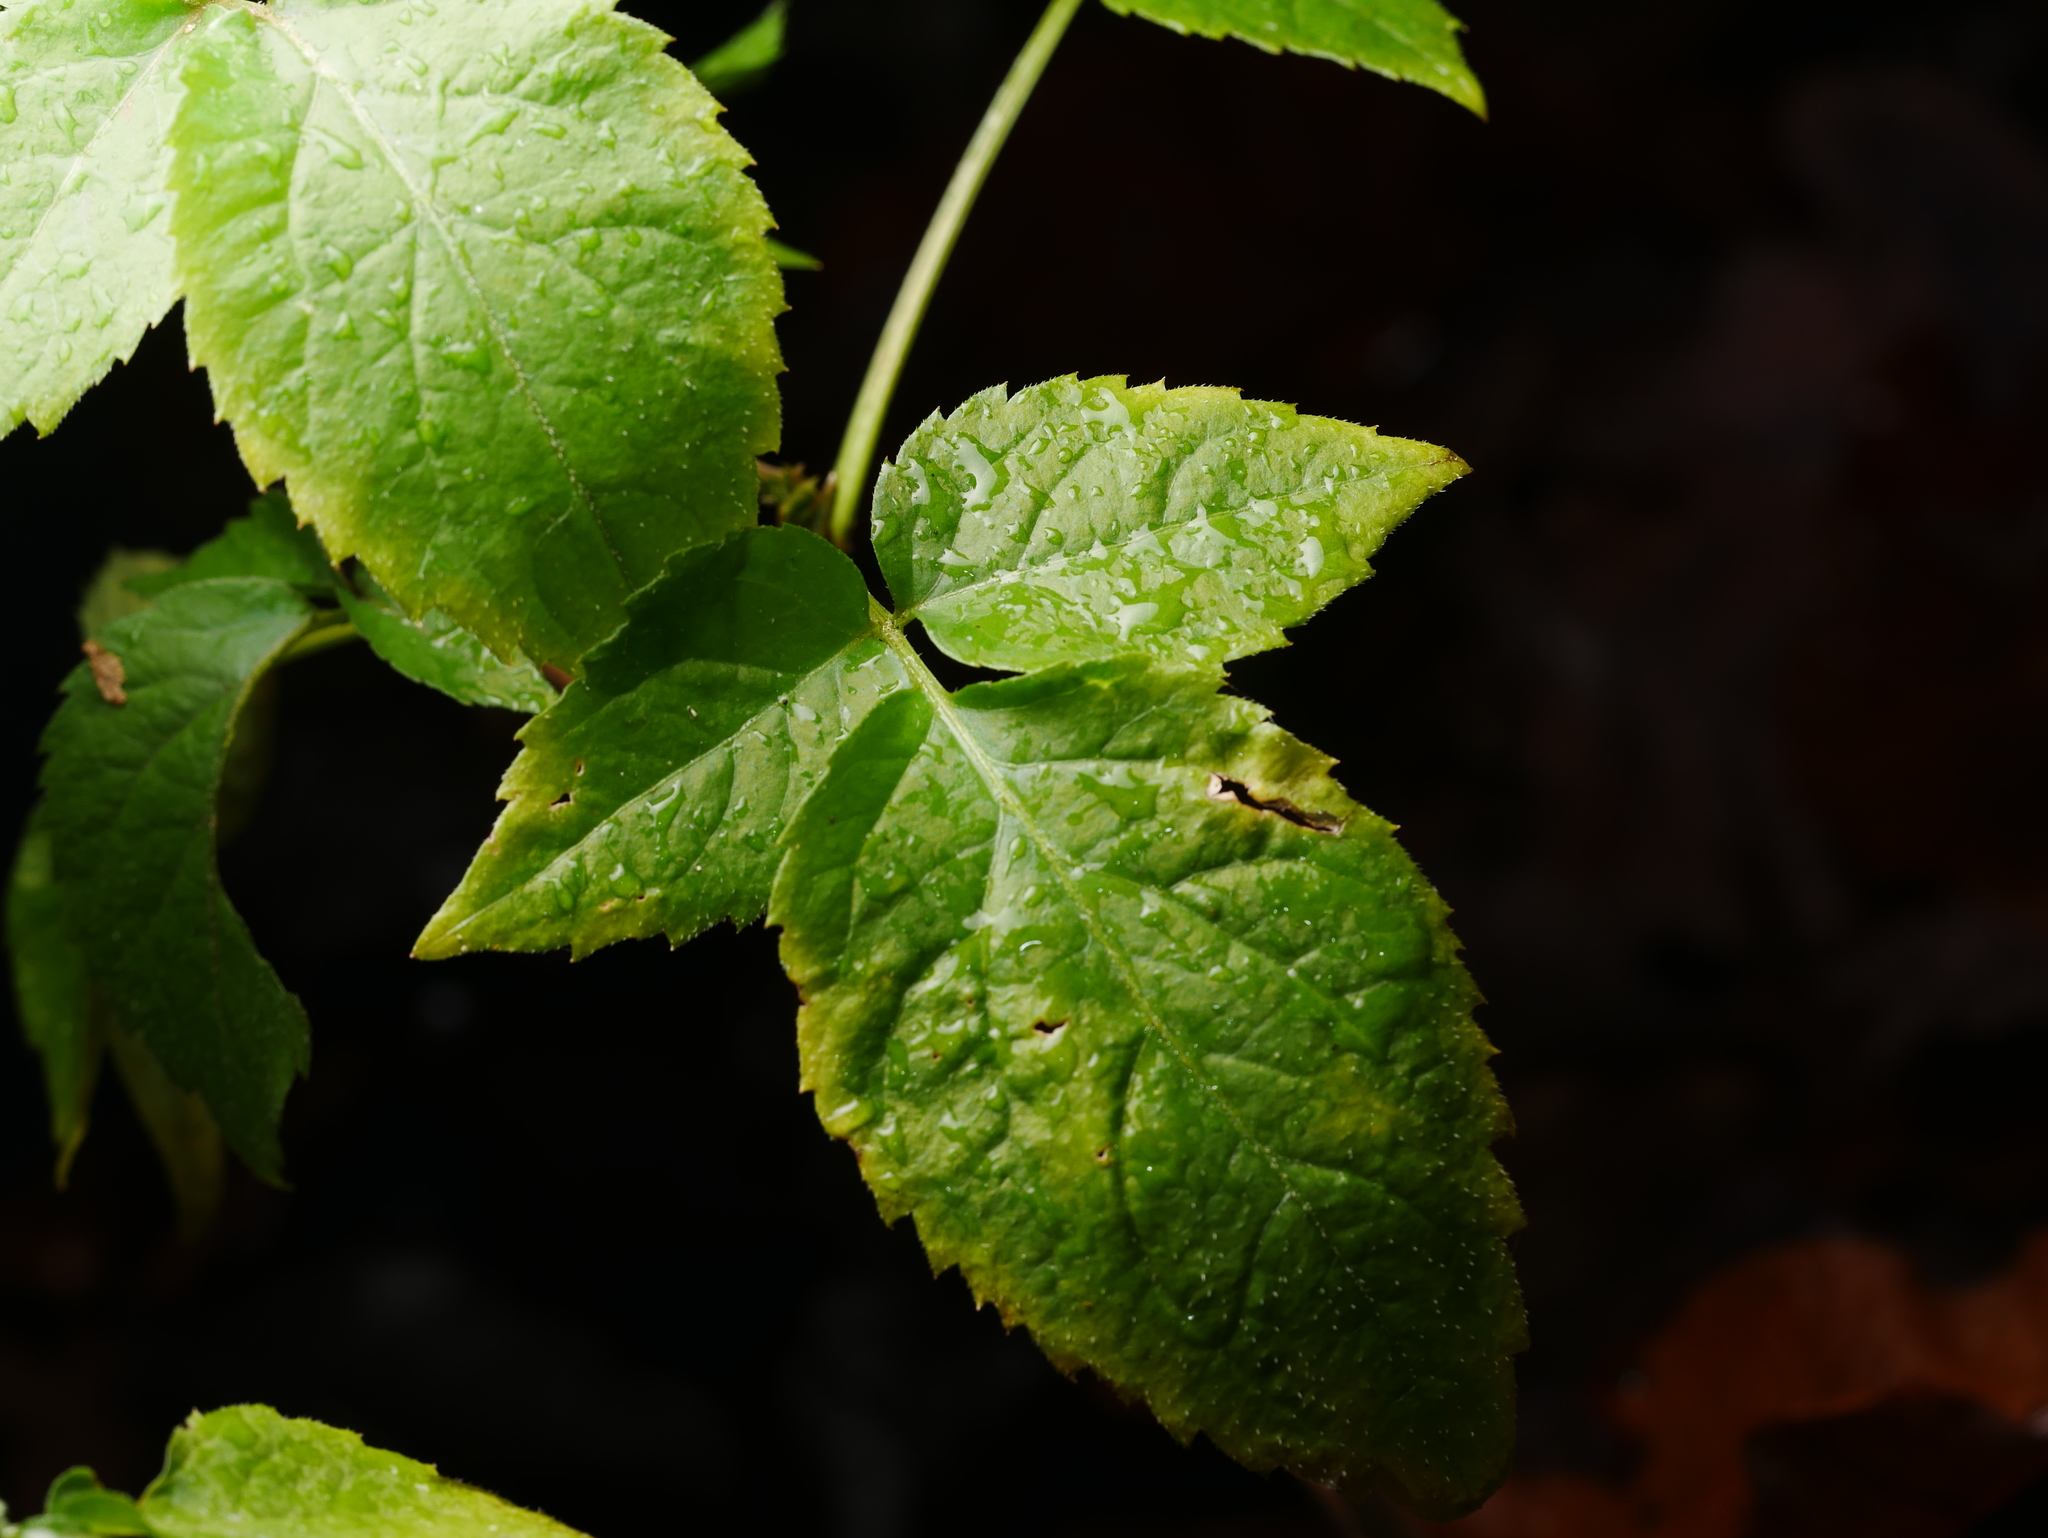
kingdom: Plantae
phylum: Tracheophyta
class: Magnoliopsida
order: Dipsacales
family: Viburnaceae
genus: Sambucus
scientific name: Sambucus nigra
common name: Elder
